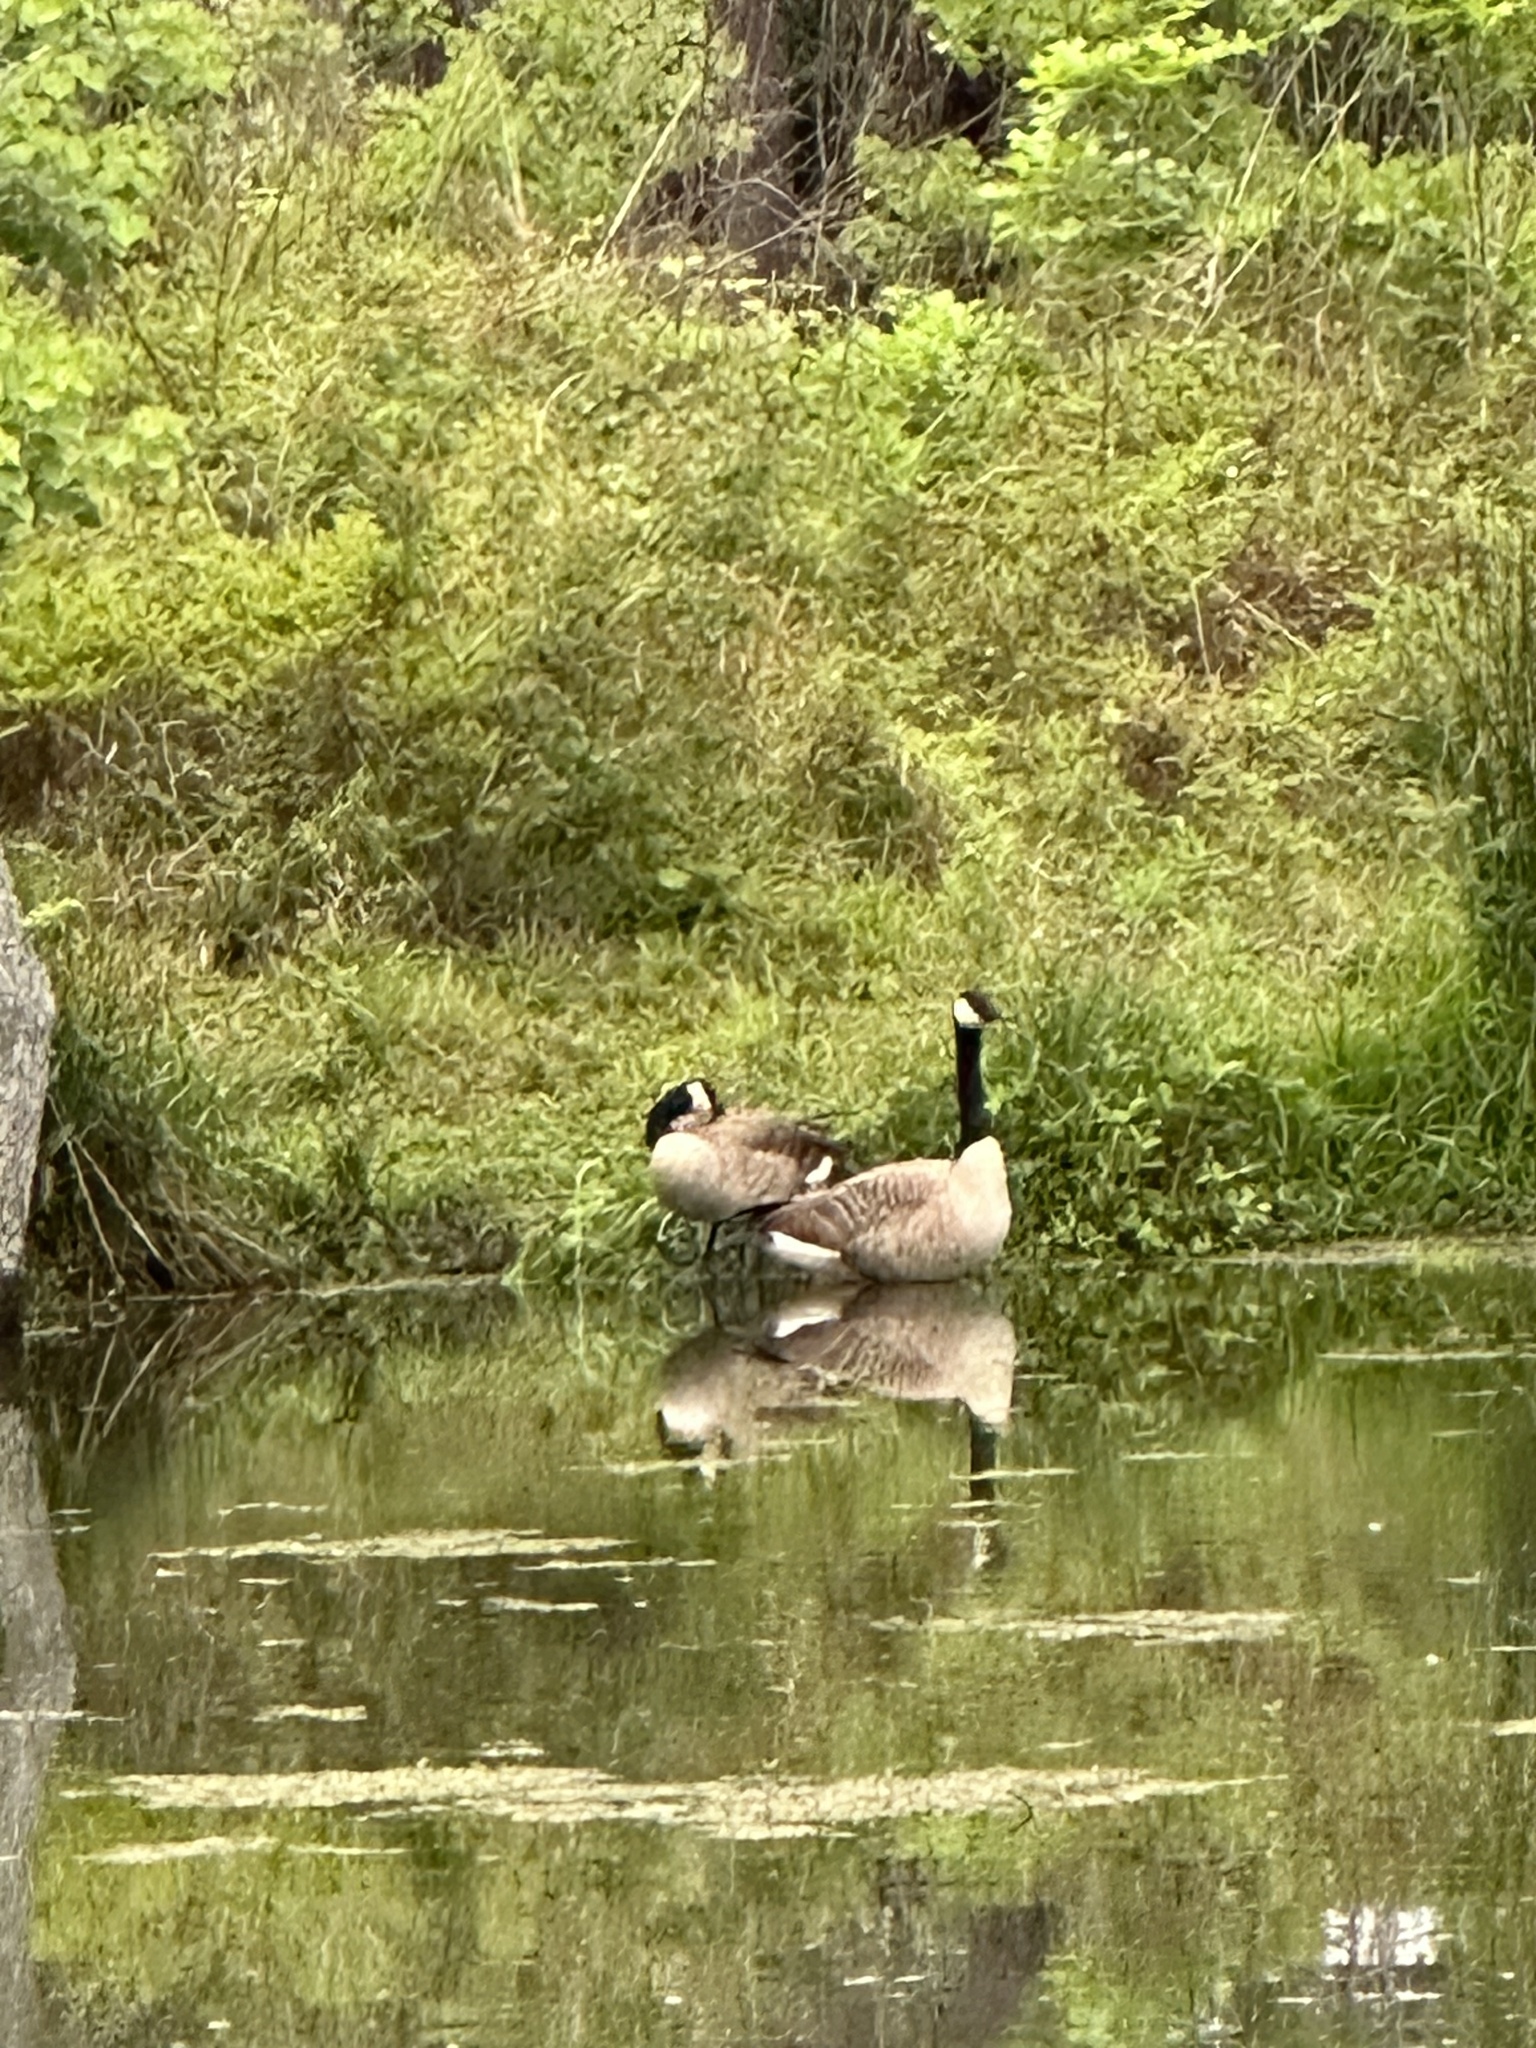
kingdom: Animalia
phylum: Chordata
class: Aves
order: Anseriformes
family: Anatidae
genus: Branta
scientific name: Branta canadensis
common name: Canada goose
